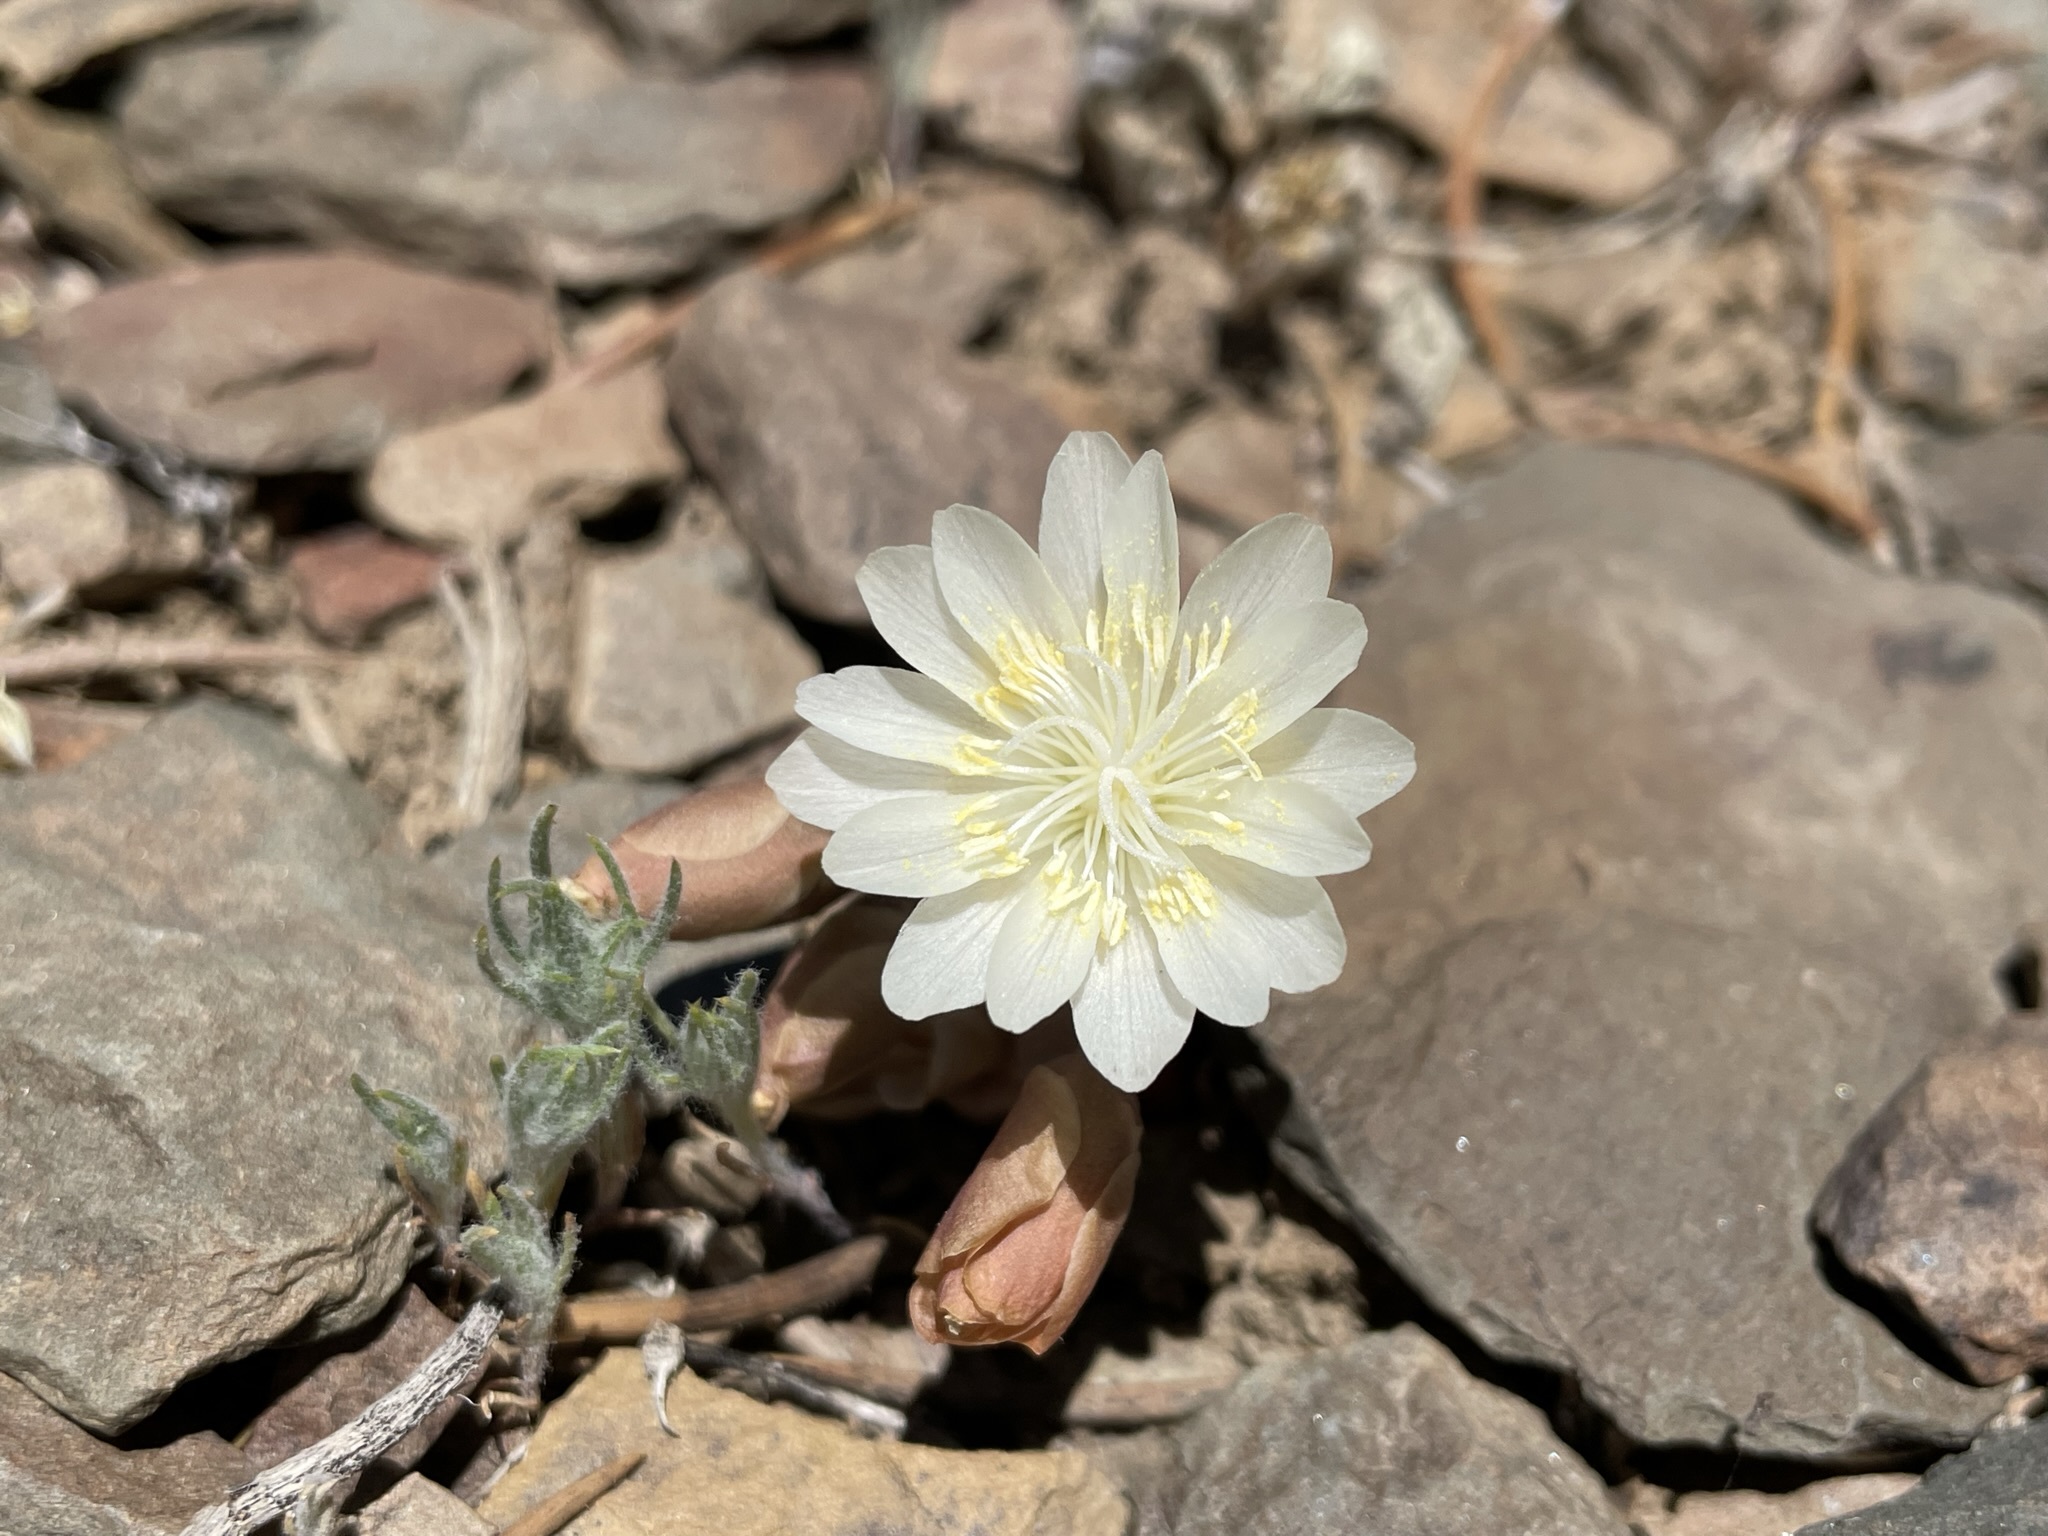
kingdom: Plantae
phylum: Tracheophyta
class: Magnoliopsida
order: Caryophyllales
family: Montiaceae
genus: Lewisia
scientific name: Lewisia rediviva
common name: Bitter-root
